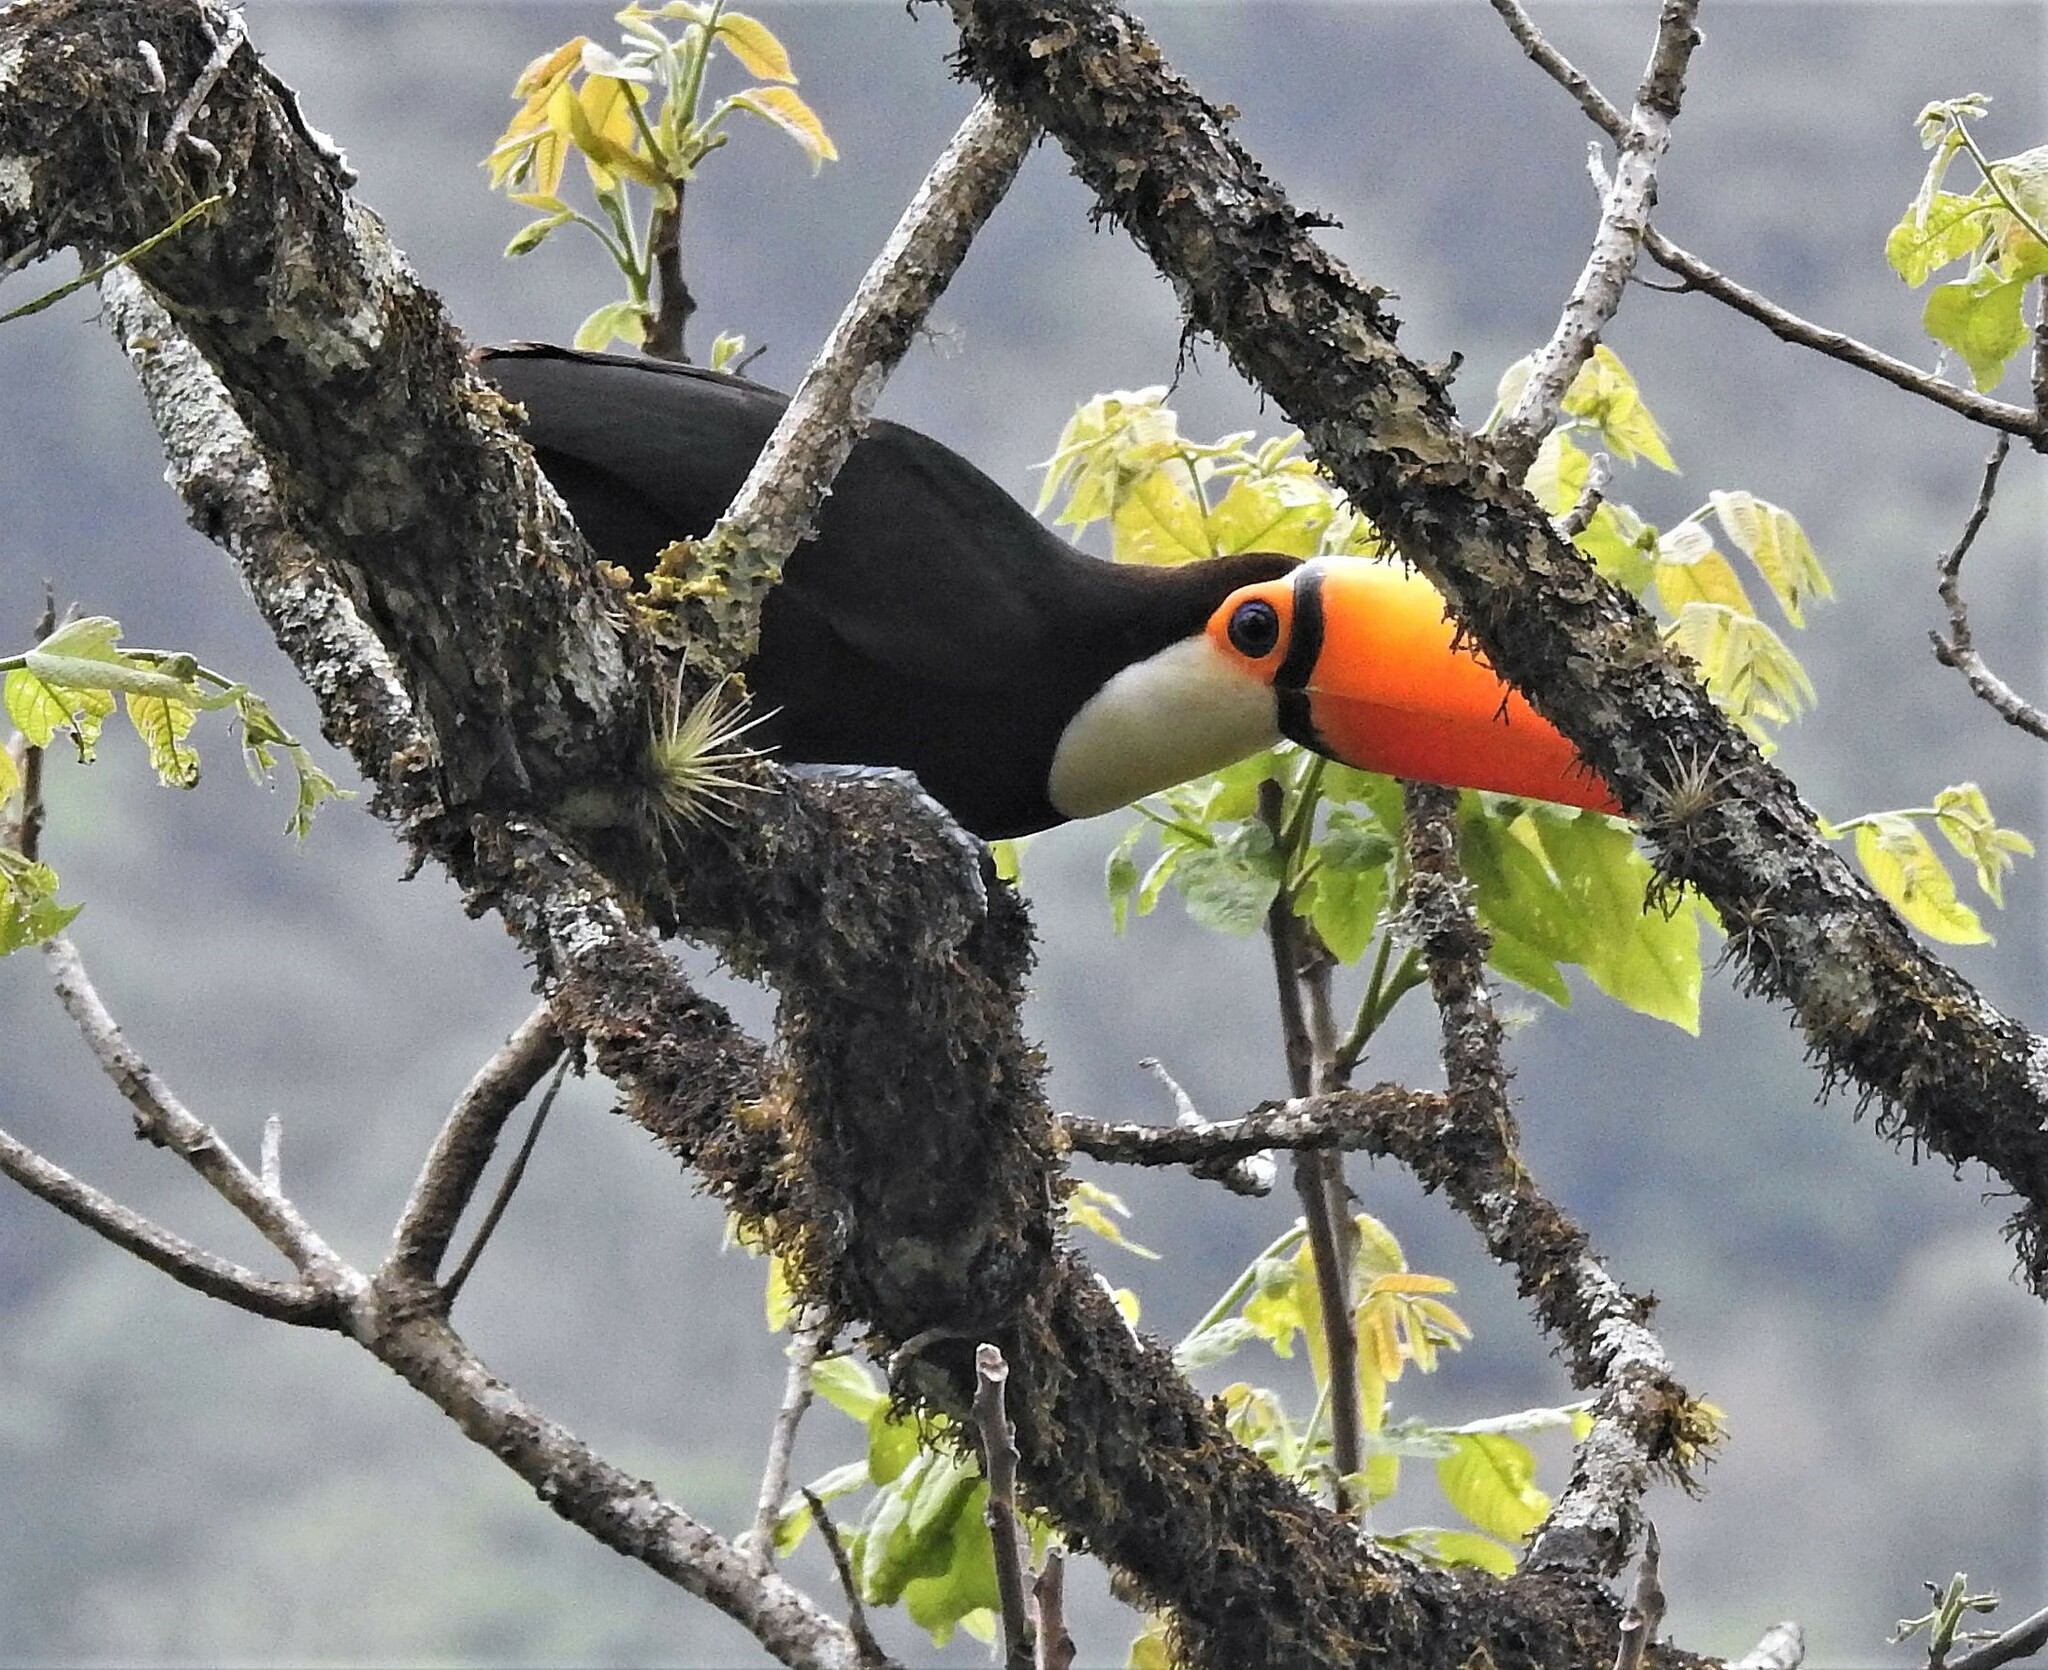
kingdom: Animalia
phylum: Chordata
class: Aves
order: Piciformes
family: Ramphastidae
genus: Ramphastos
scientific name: Ramphastos toco
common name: Toco toucan
